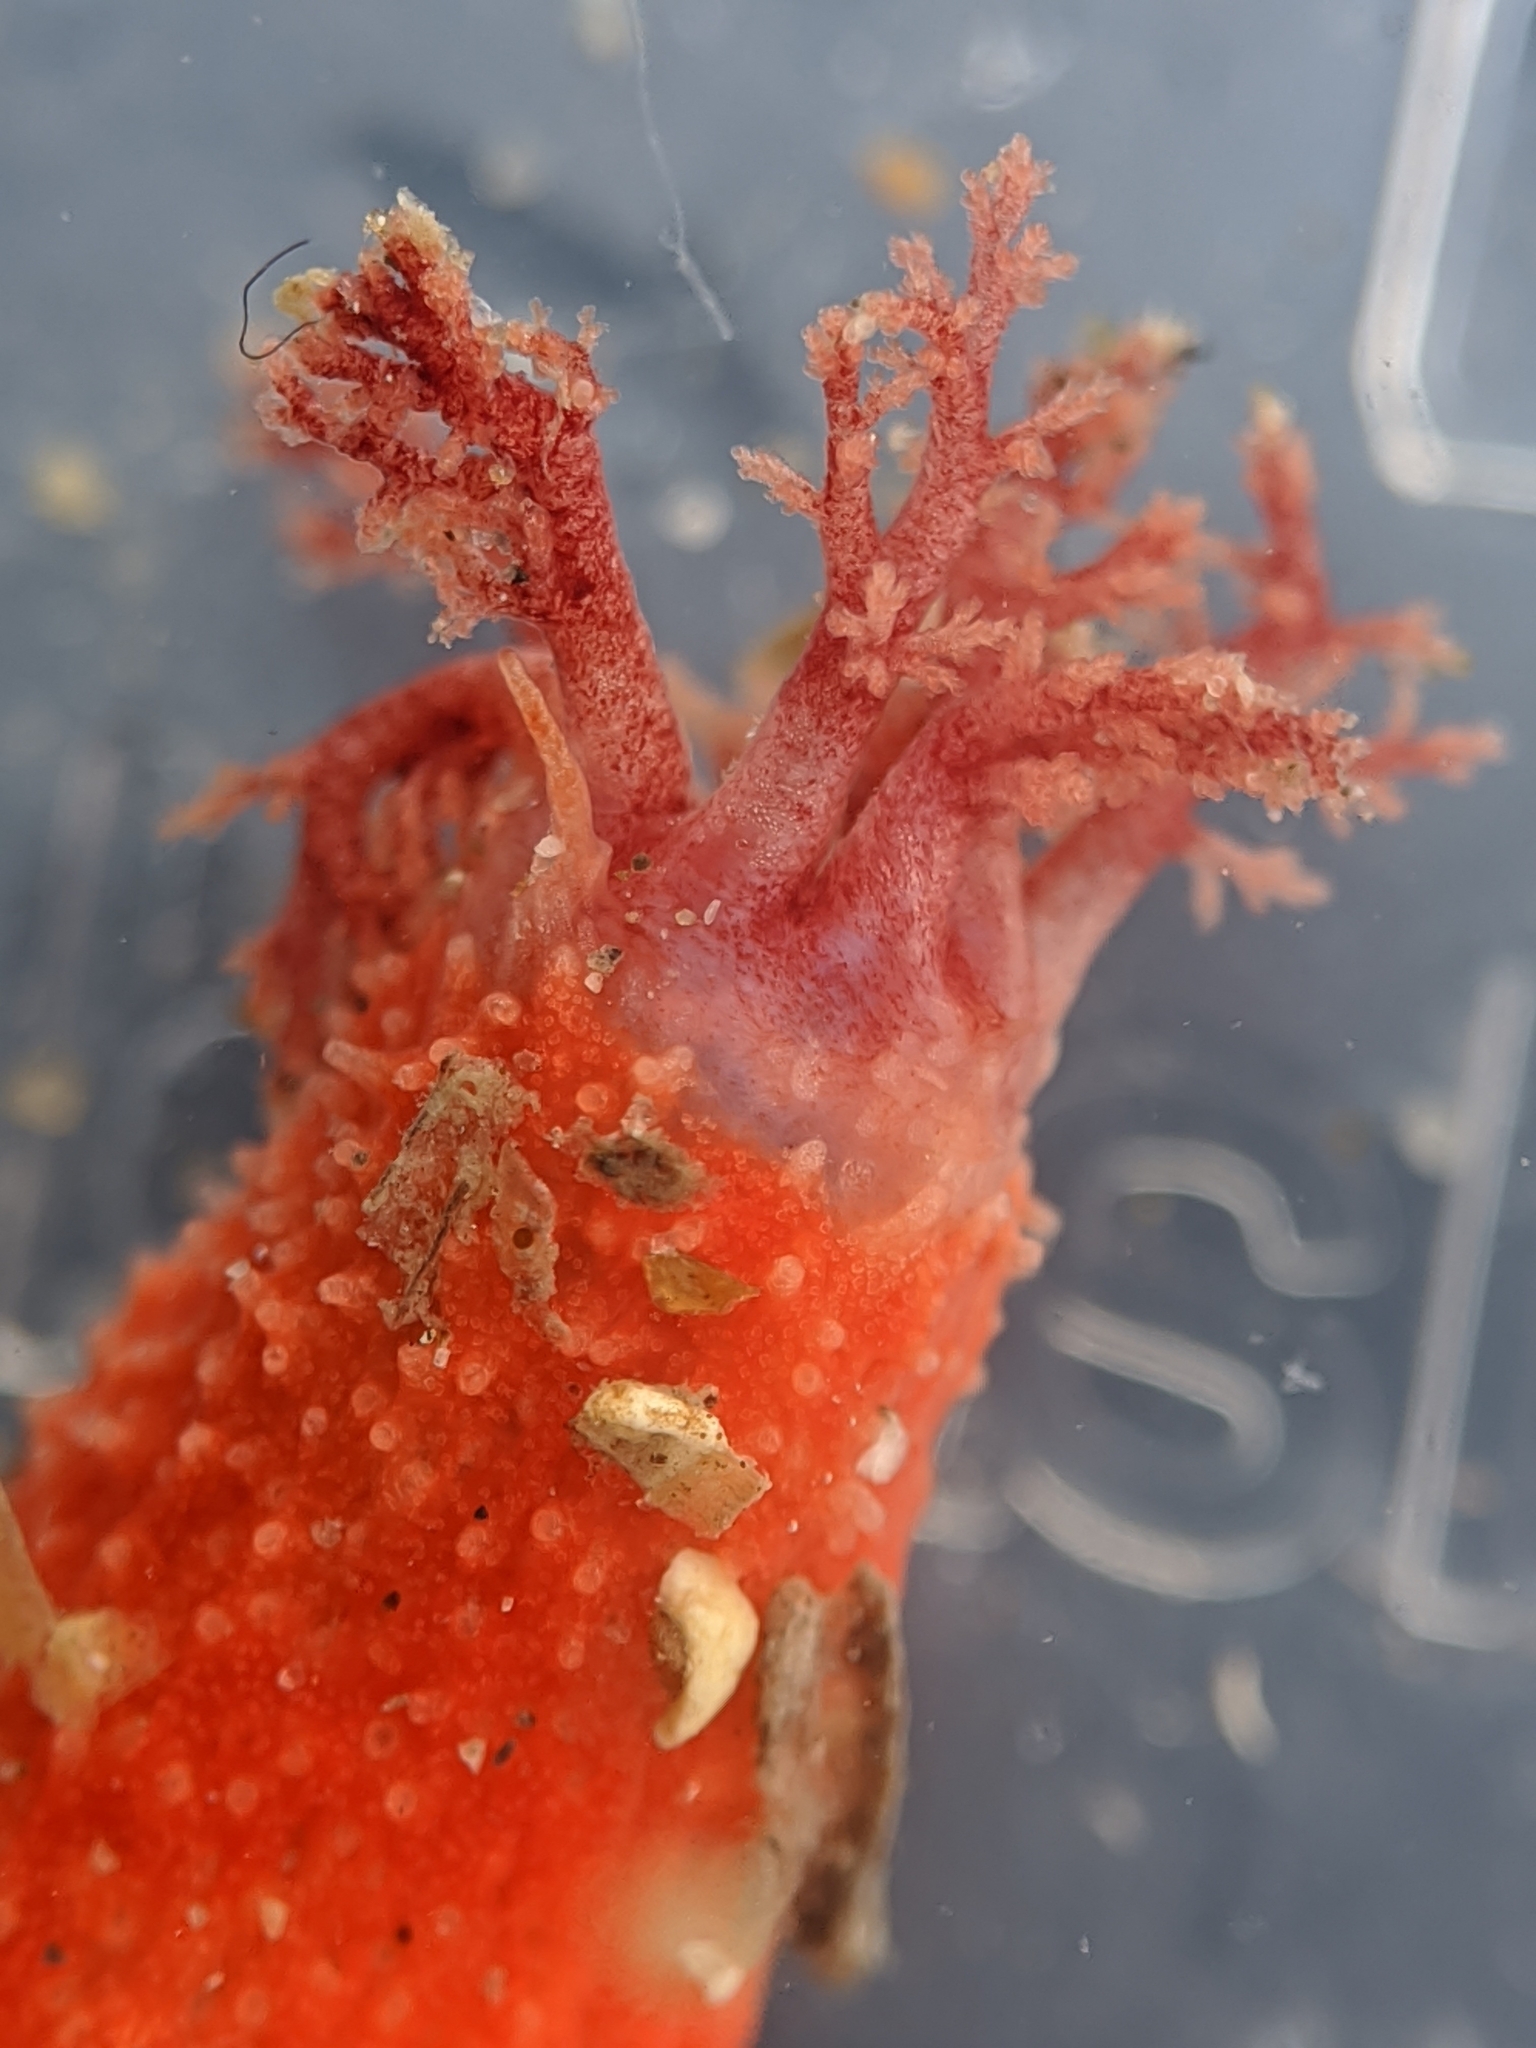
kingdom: Animalia
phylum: Echinodermata
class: Holothuroidea
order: Dendrochirotida
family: Psolidae
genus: Lissothuria
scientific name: Lissothuria nutriens
